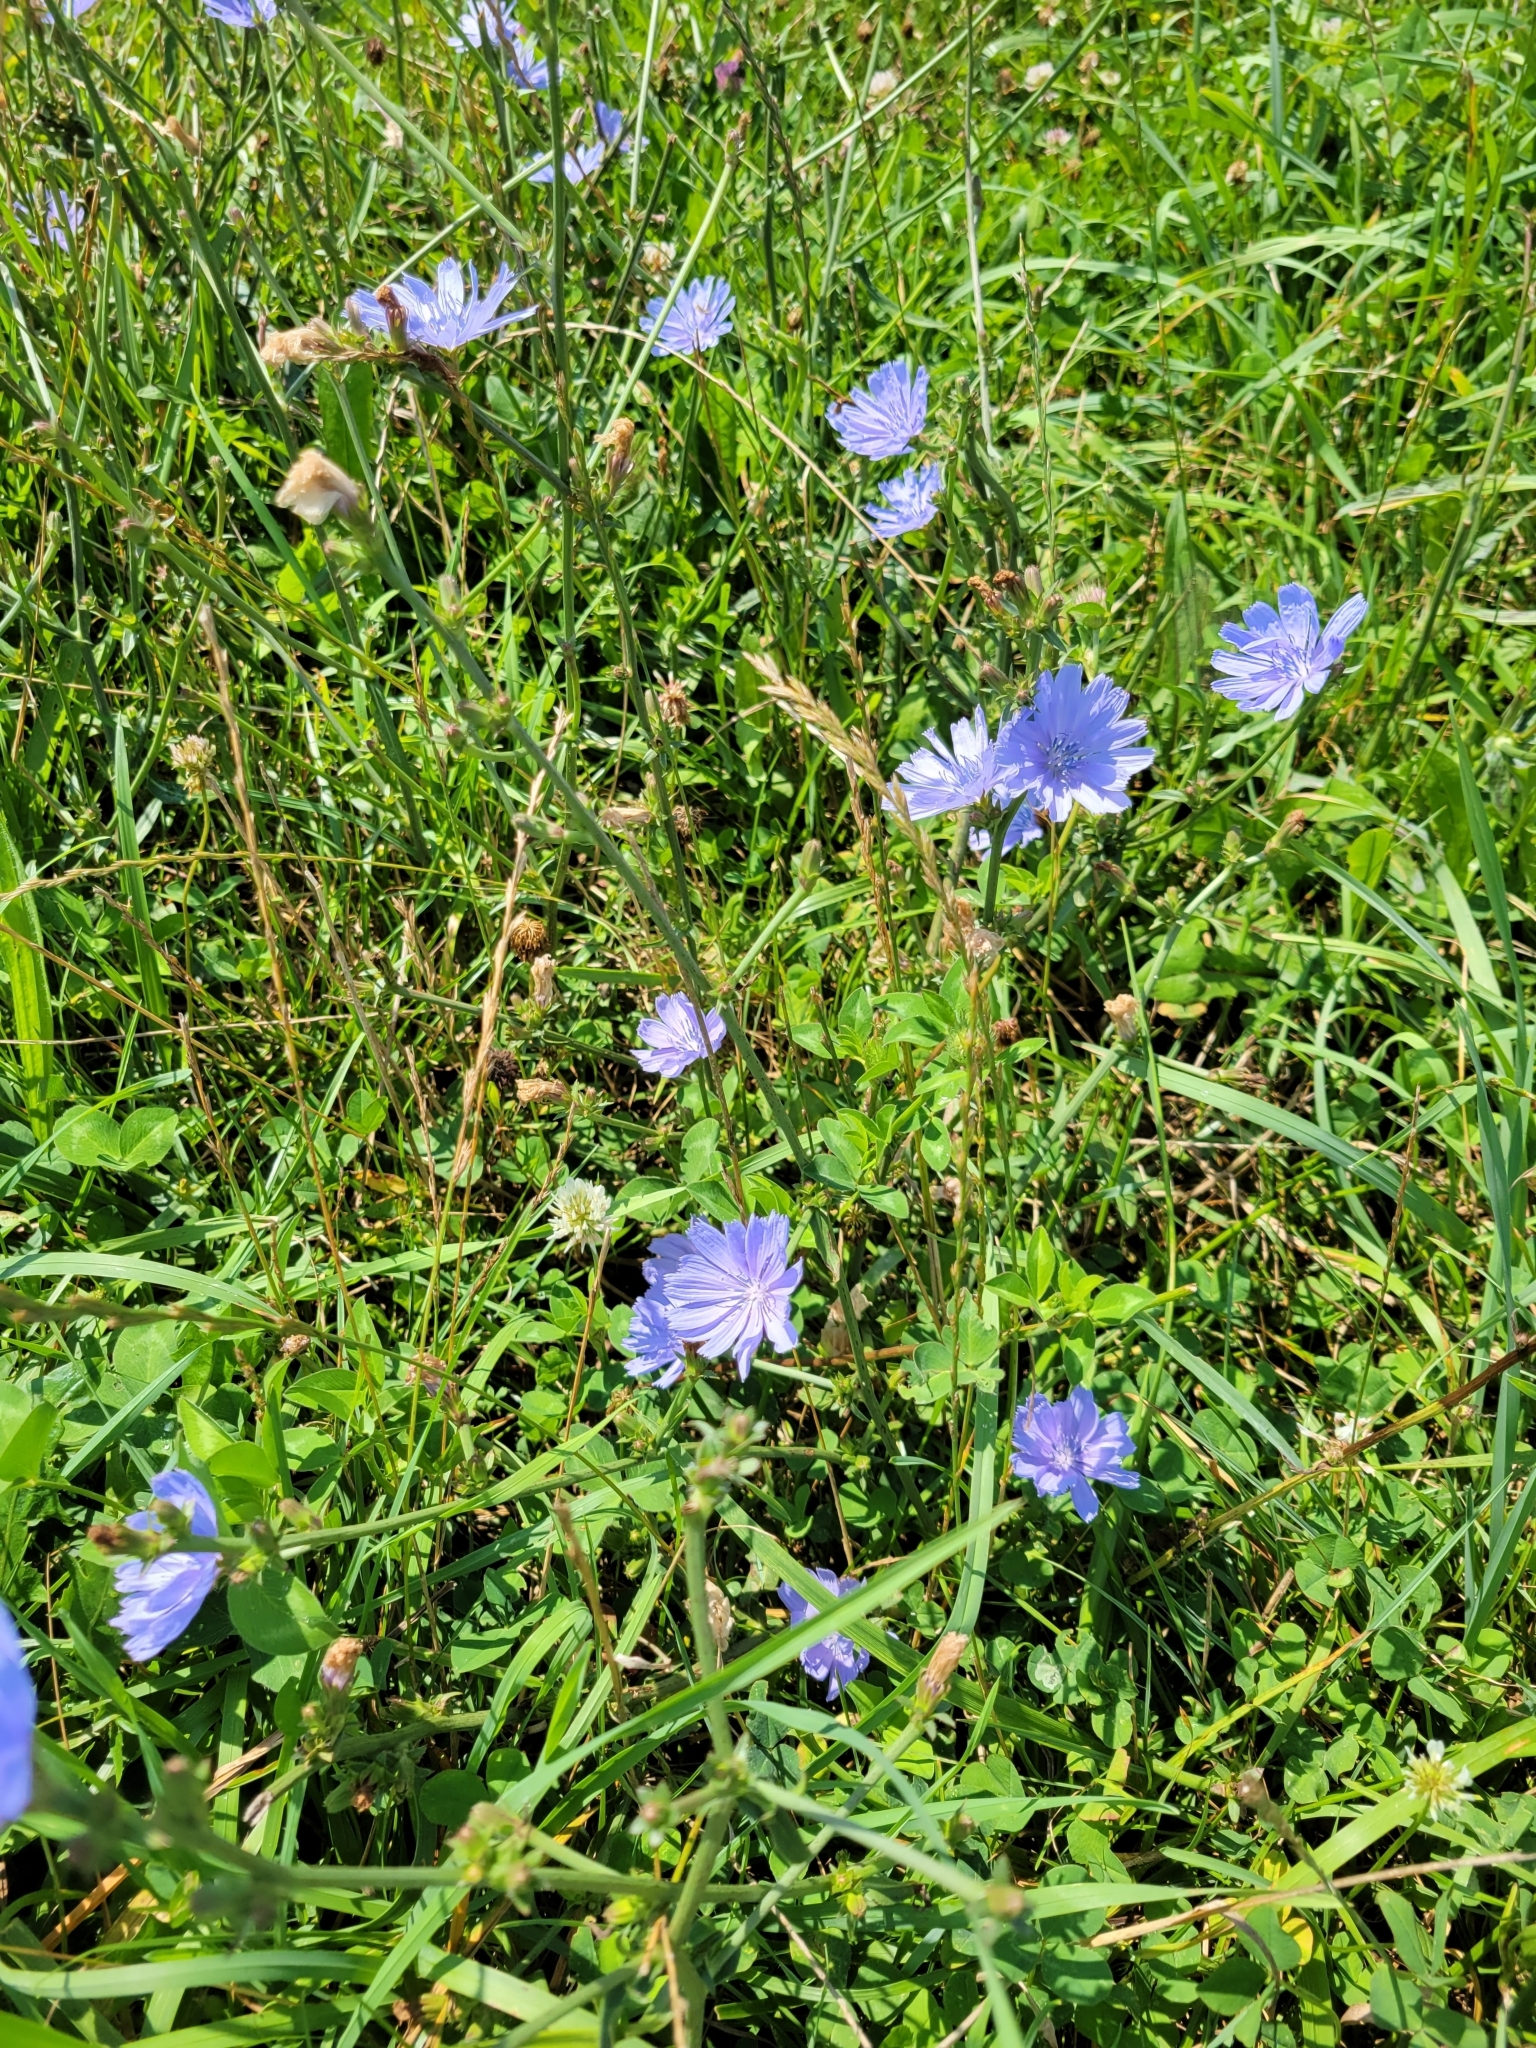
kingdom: Plantae
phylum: Tracheophyta
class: Magnoliopsida
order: Asterales
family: Asteraceae
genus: Cichorium
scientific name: Cichorium intybus
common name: Chicory
